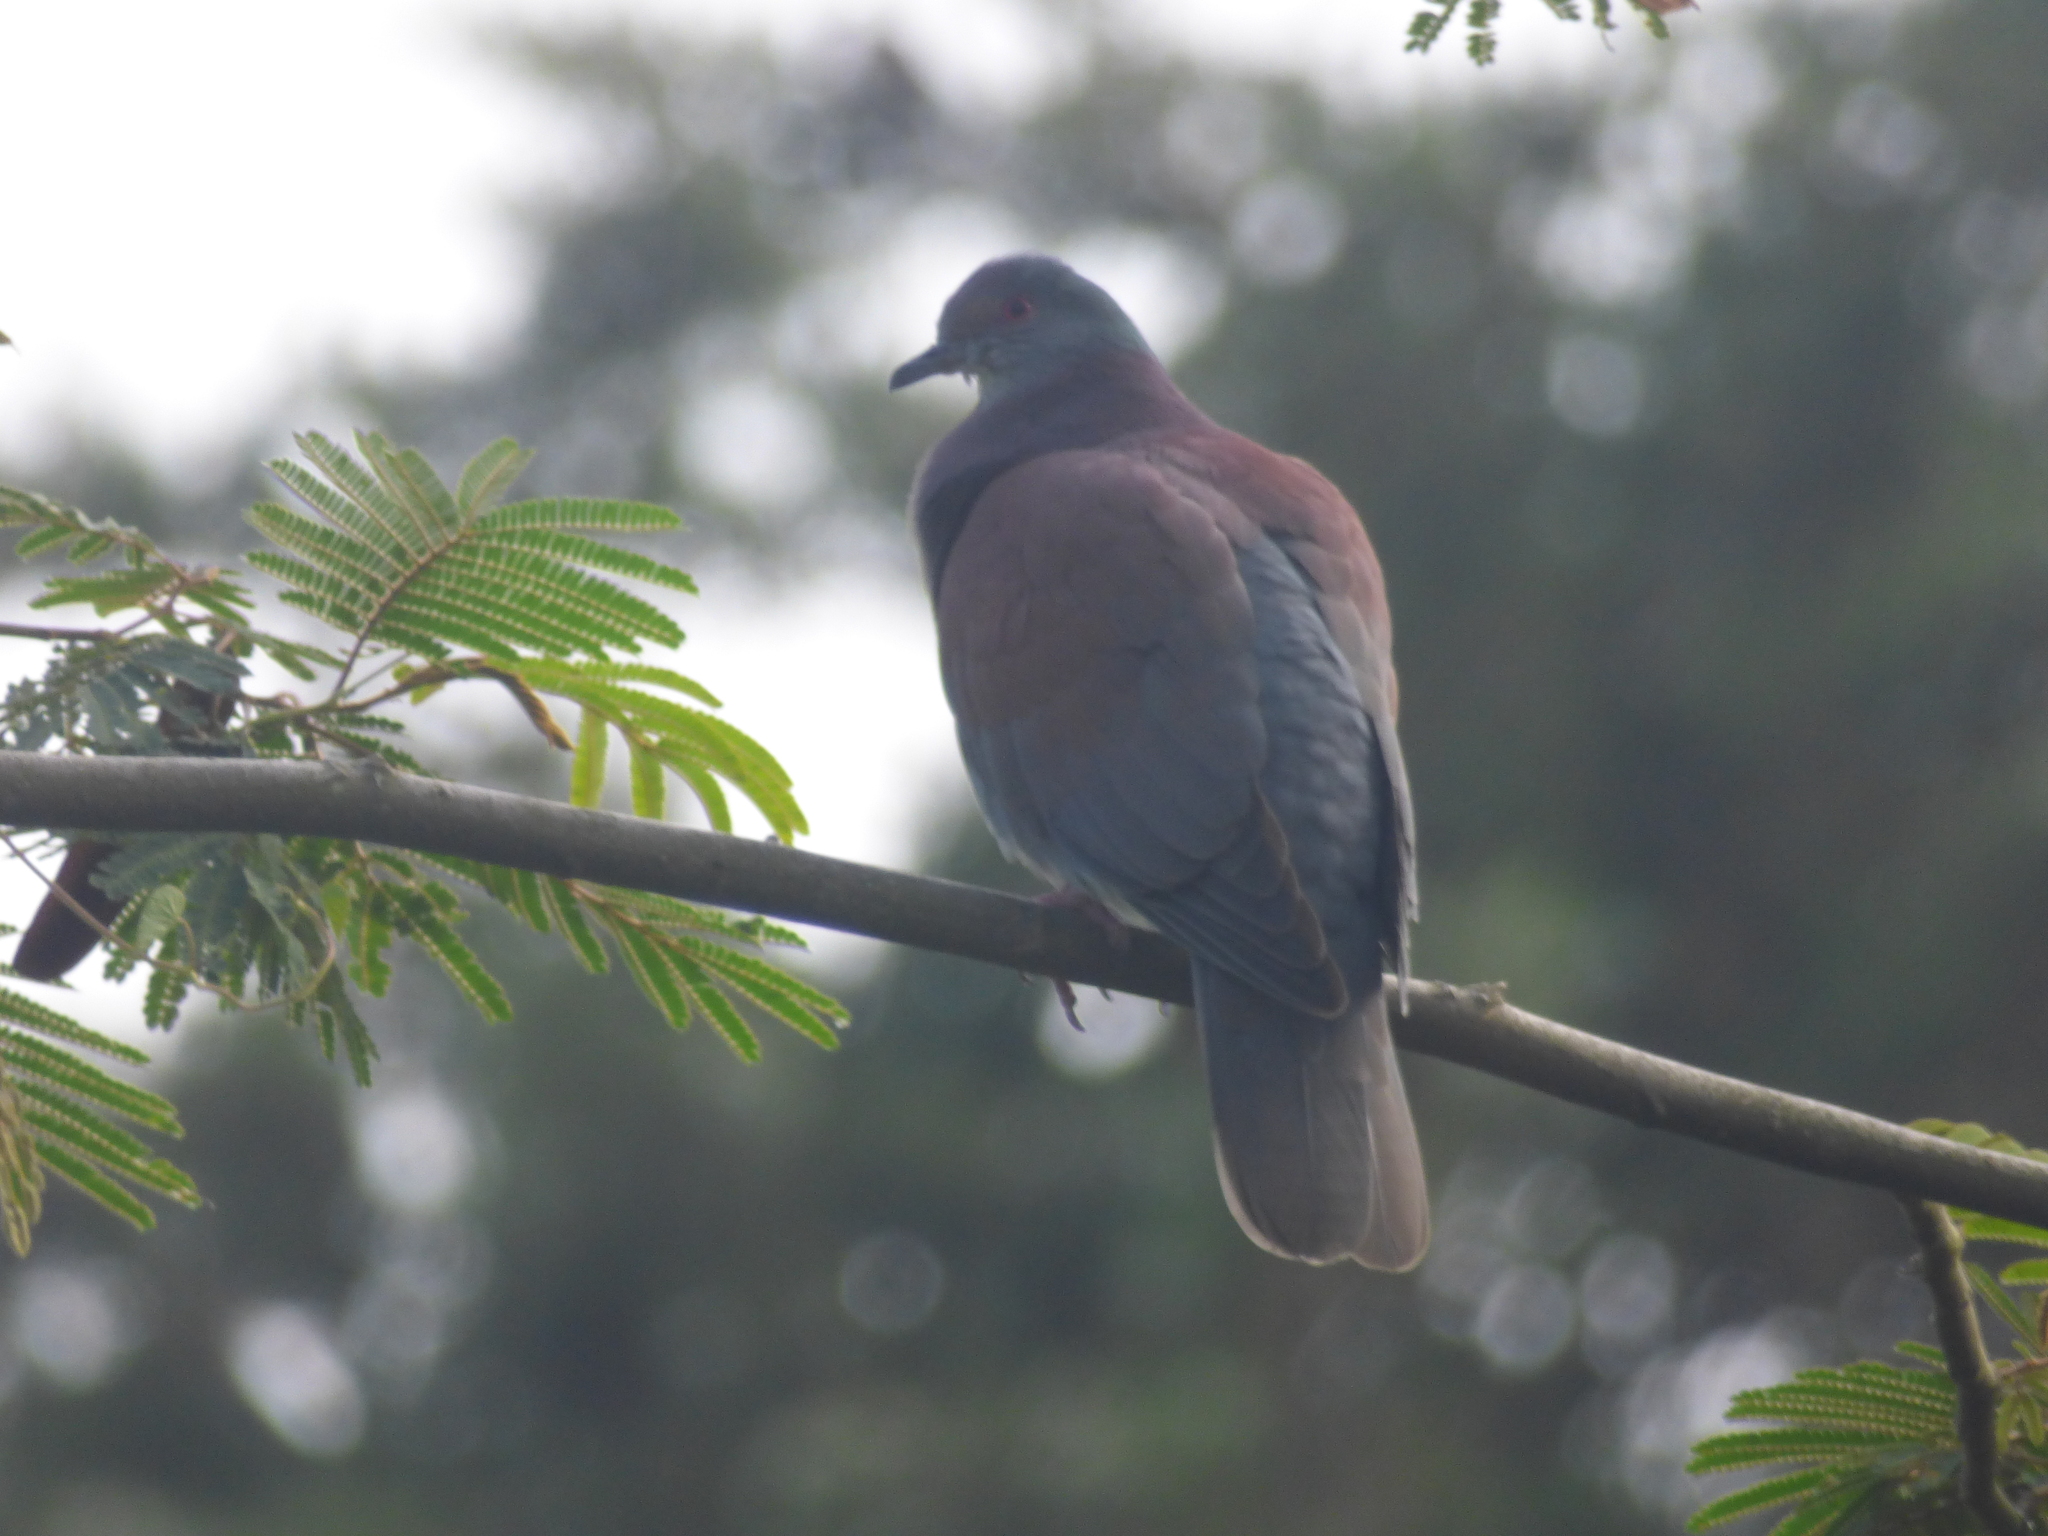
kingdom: Animalia
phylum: Chordata
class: Aves
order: Columbiformes
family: Columbidae
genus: Patagioenas
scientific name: Patagioenas cayennensis
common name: Pale-vented pigeon
